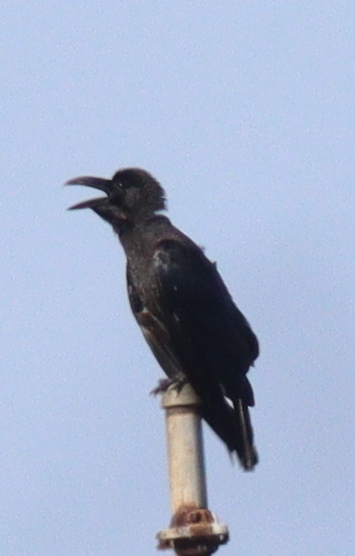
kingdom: Animalia
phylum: Chordata
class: Aves
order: Passeriformes
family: Corvidae
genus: Corvus
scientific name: Corvus macrorhynchos
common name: Large-billed crow
